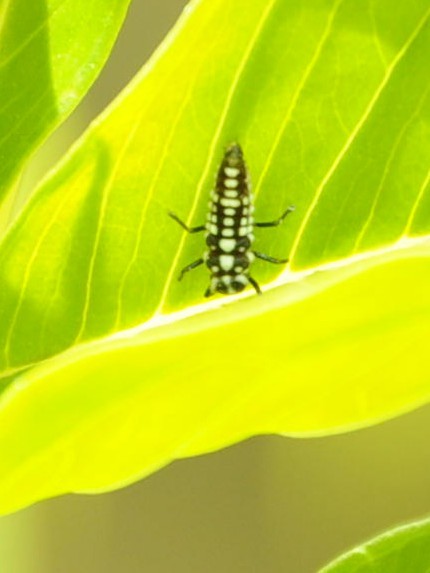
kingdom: Animalia
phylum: Arthropoda
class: Insecta
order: Coleoptera
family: Coccinellidae
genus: Anegleis
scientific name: Anegleis cardoni
